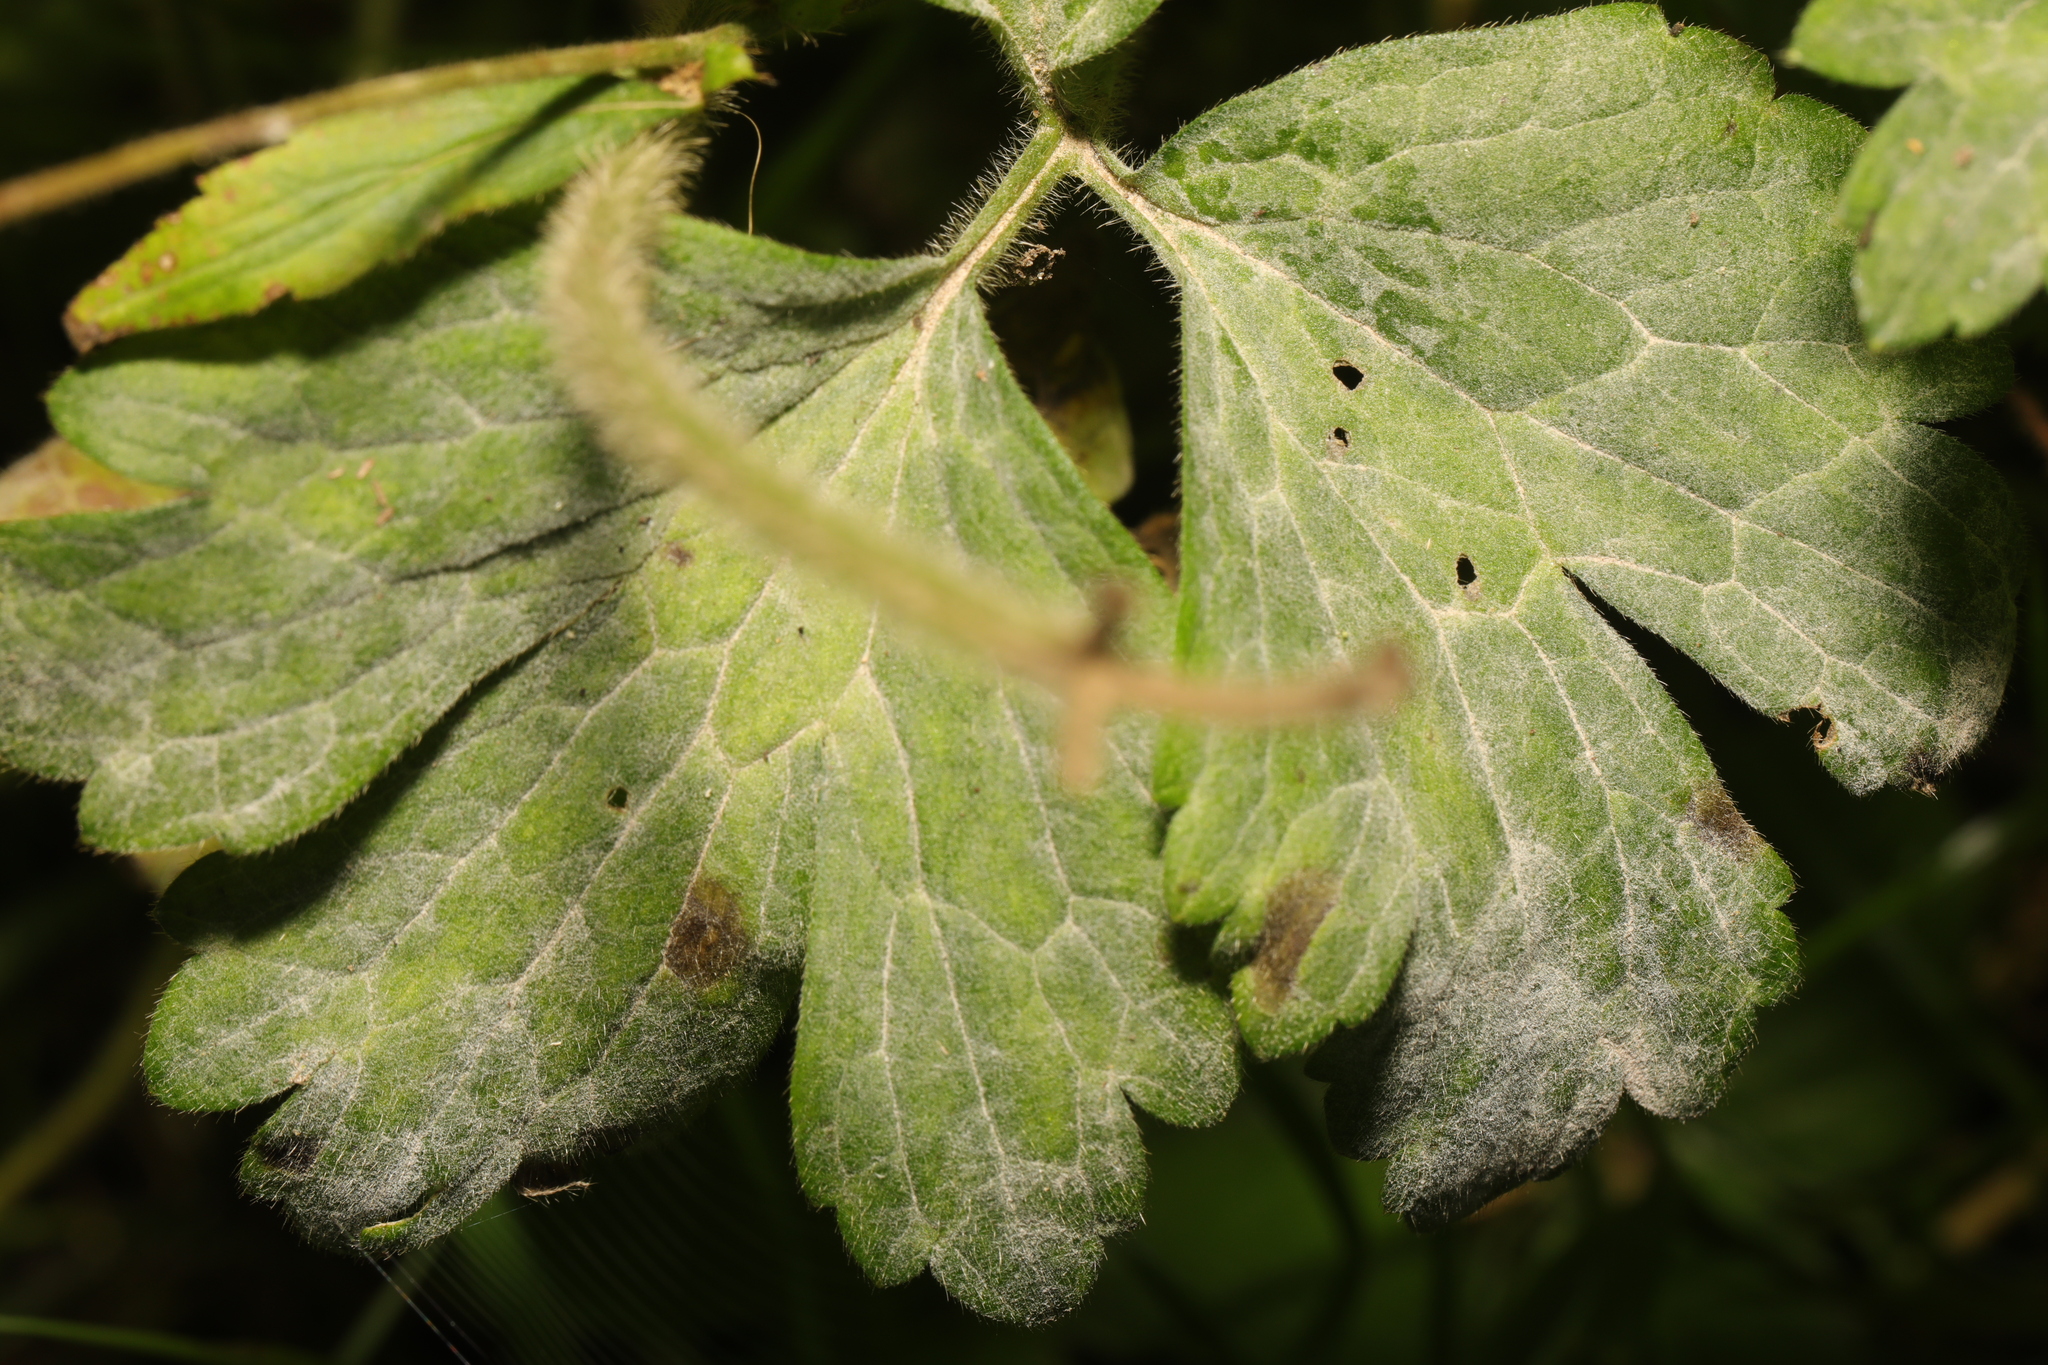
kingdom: Fungi
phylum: Ascomycota
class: Leotiomycetes
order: Helotiales
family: Erysiphaceae
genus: Erysiphe
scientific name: Erysiphe aquilegiae
